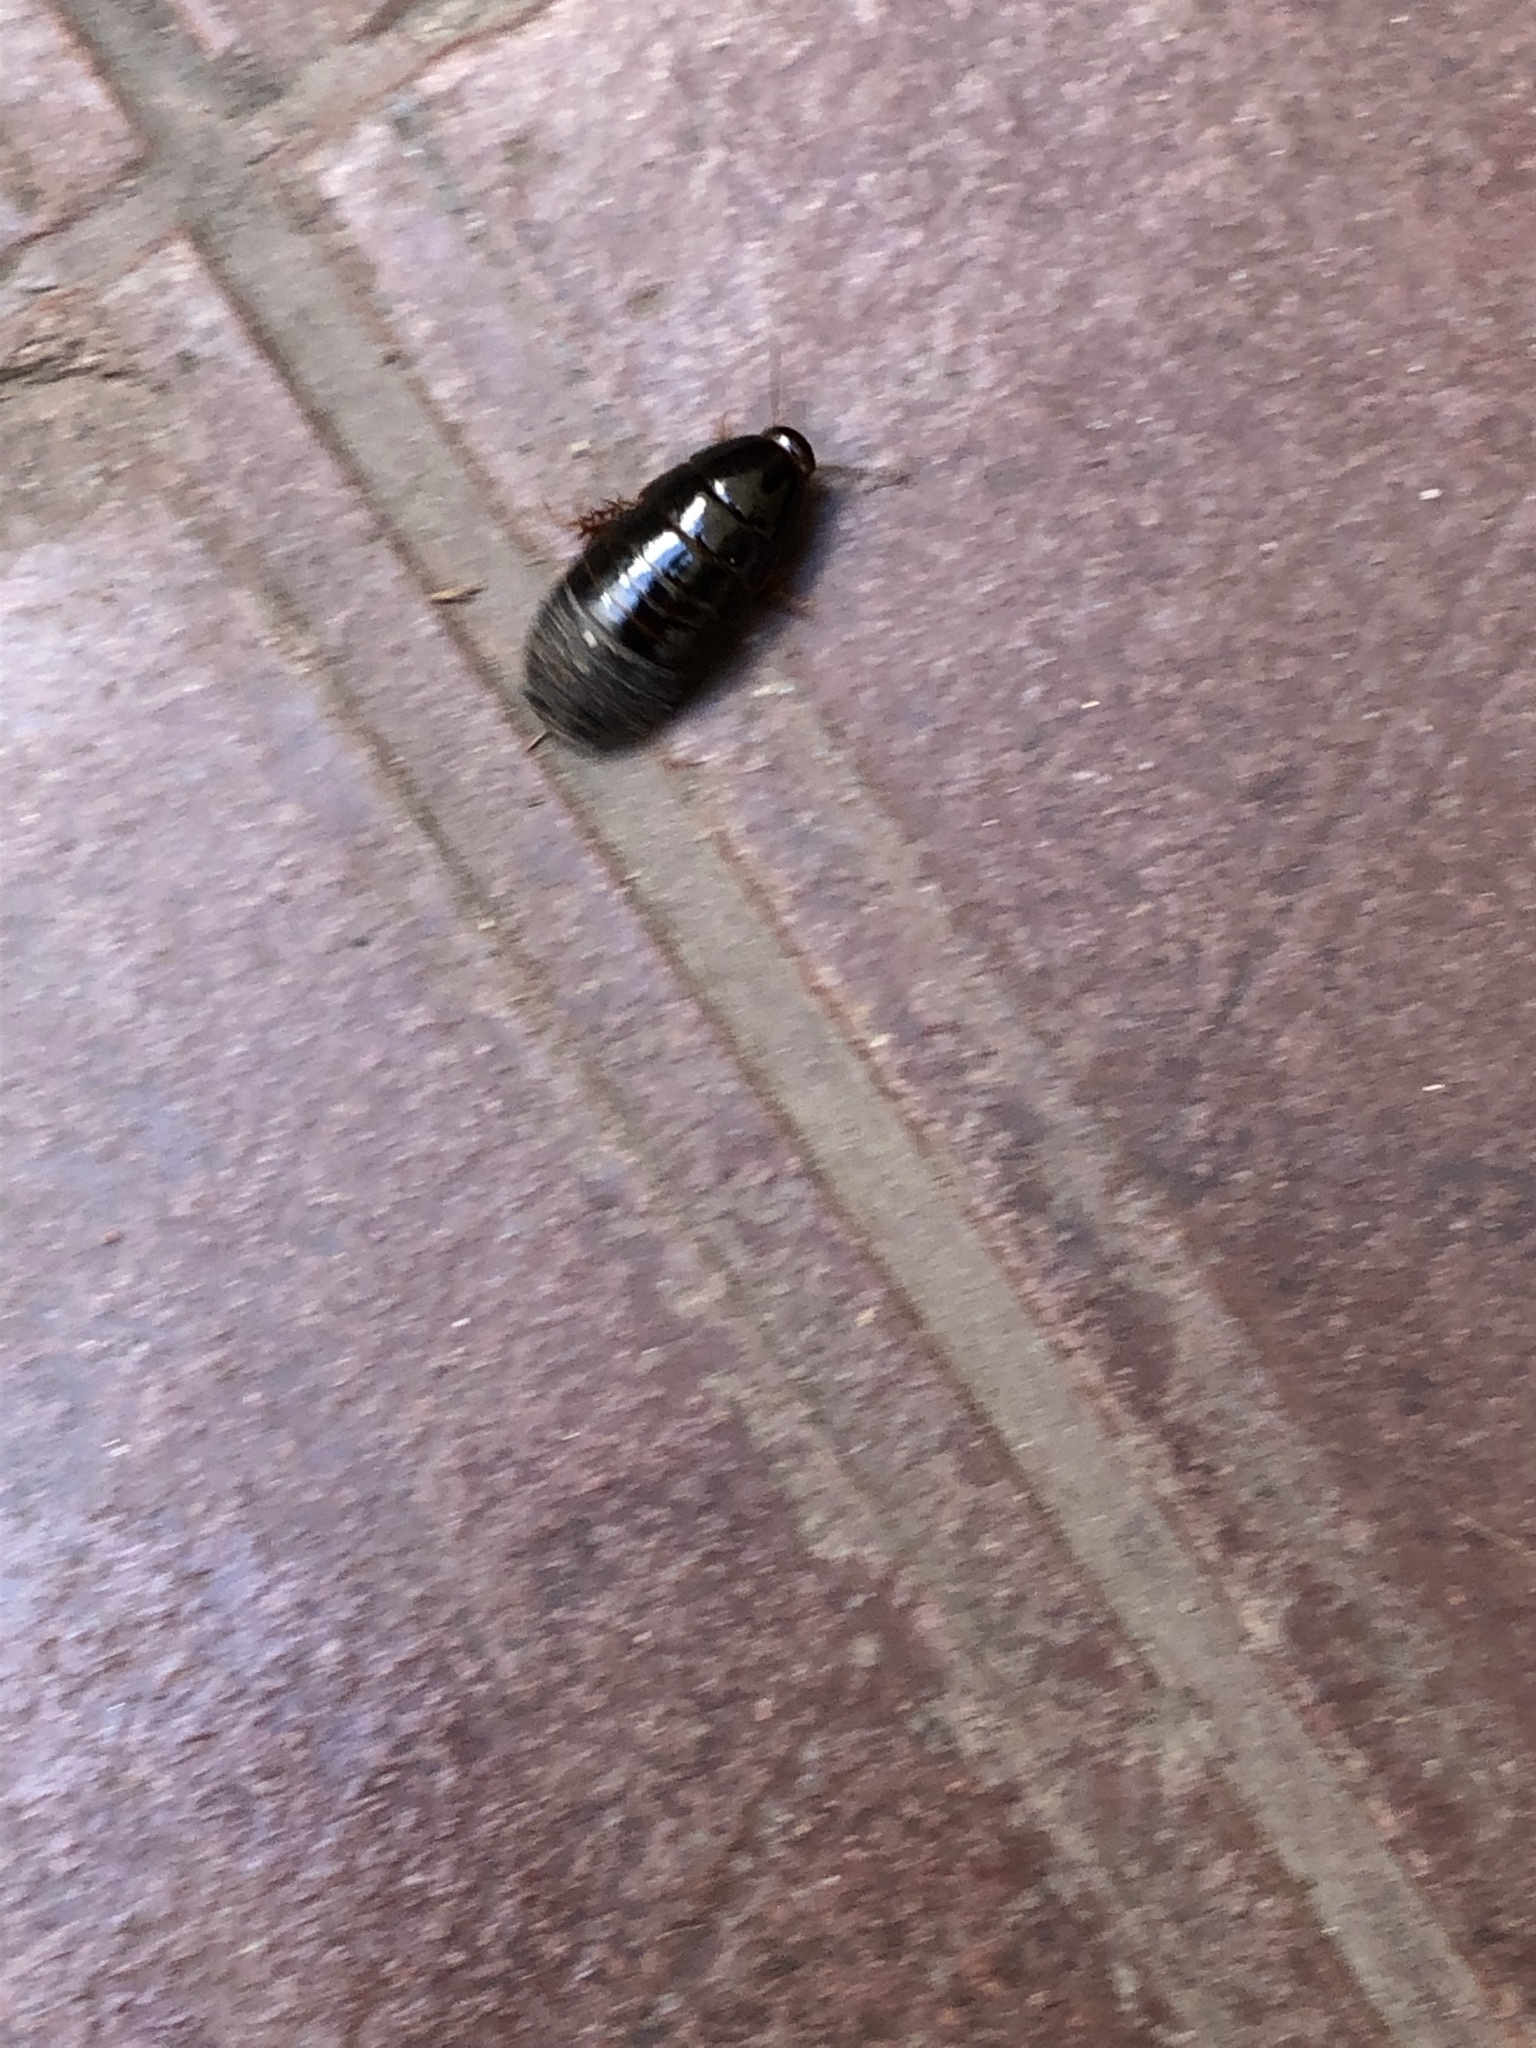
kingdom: Animalia
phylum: Arthropoda
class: Insecta
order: Blattodea
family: Blaberidae
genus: Pycnoscelus
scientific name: Pycnoscelus surinamensis
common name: Surinam cockroach
